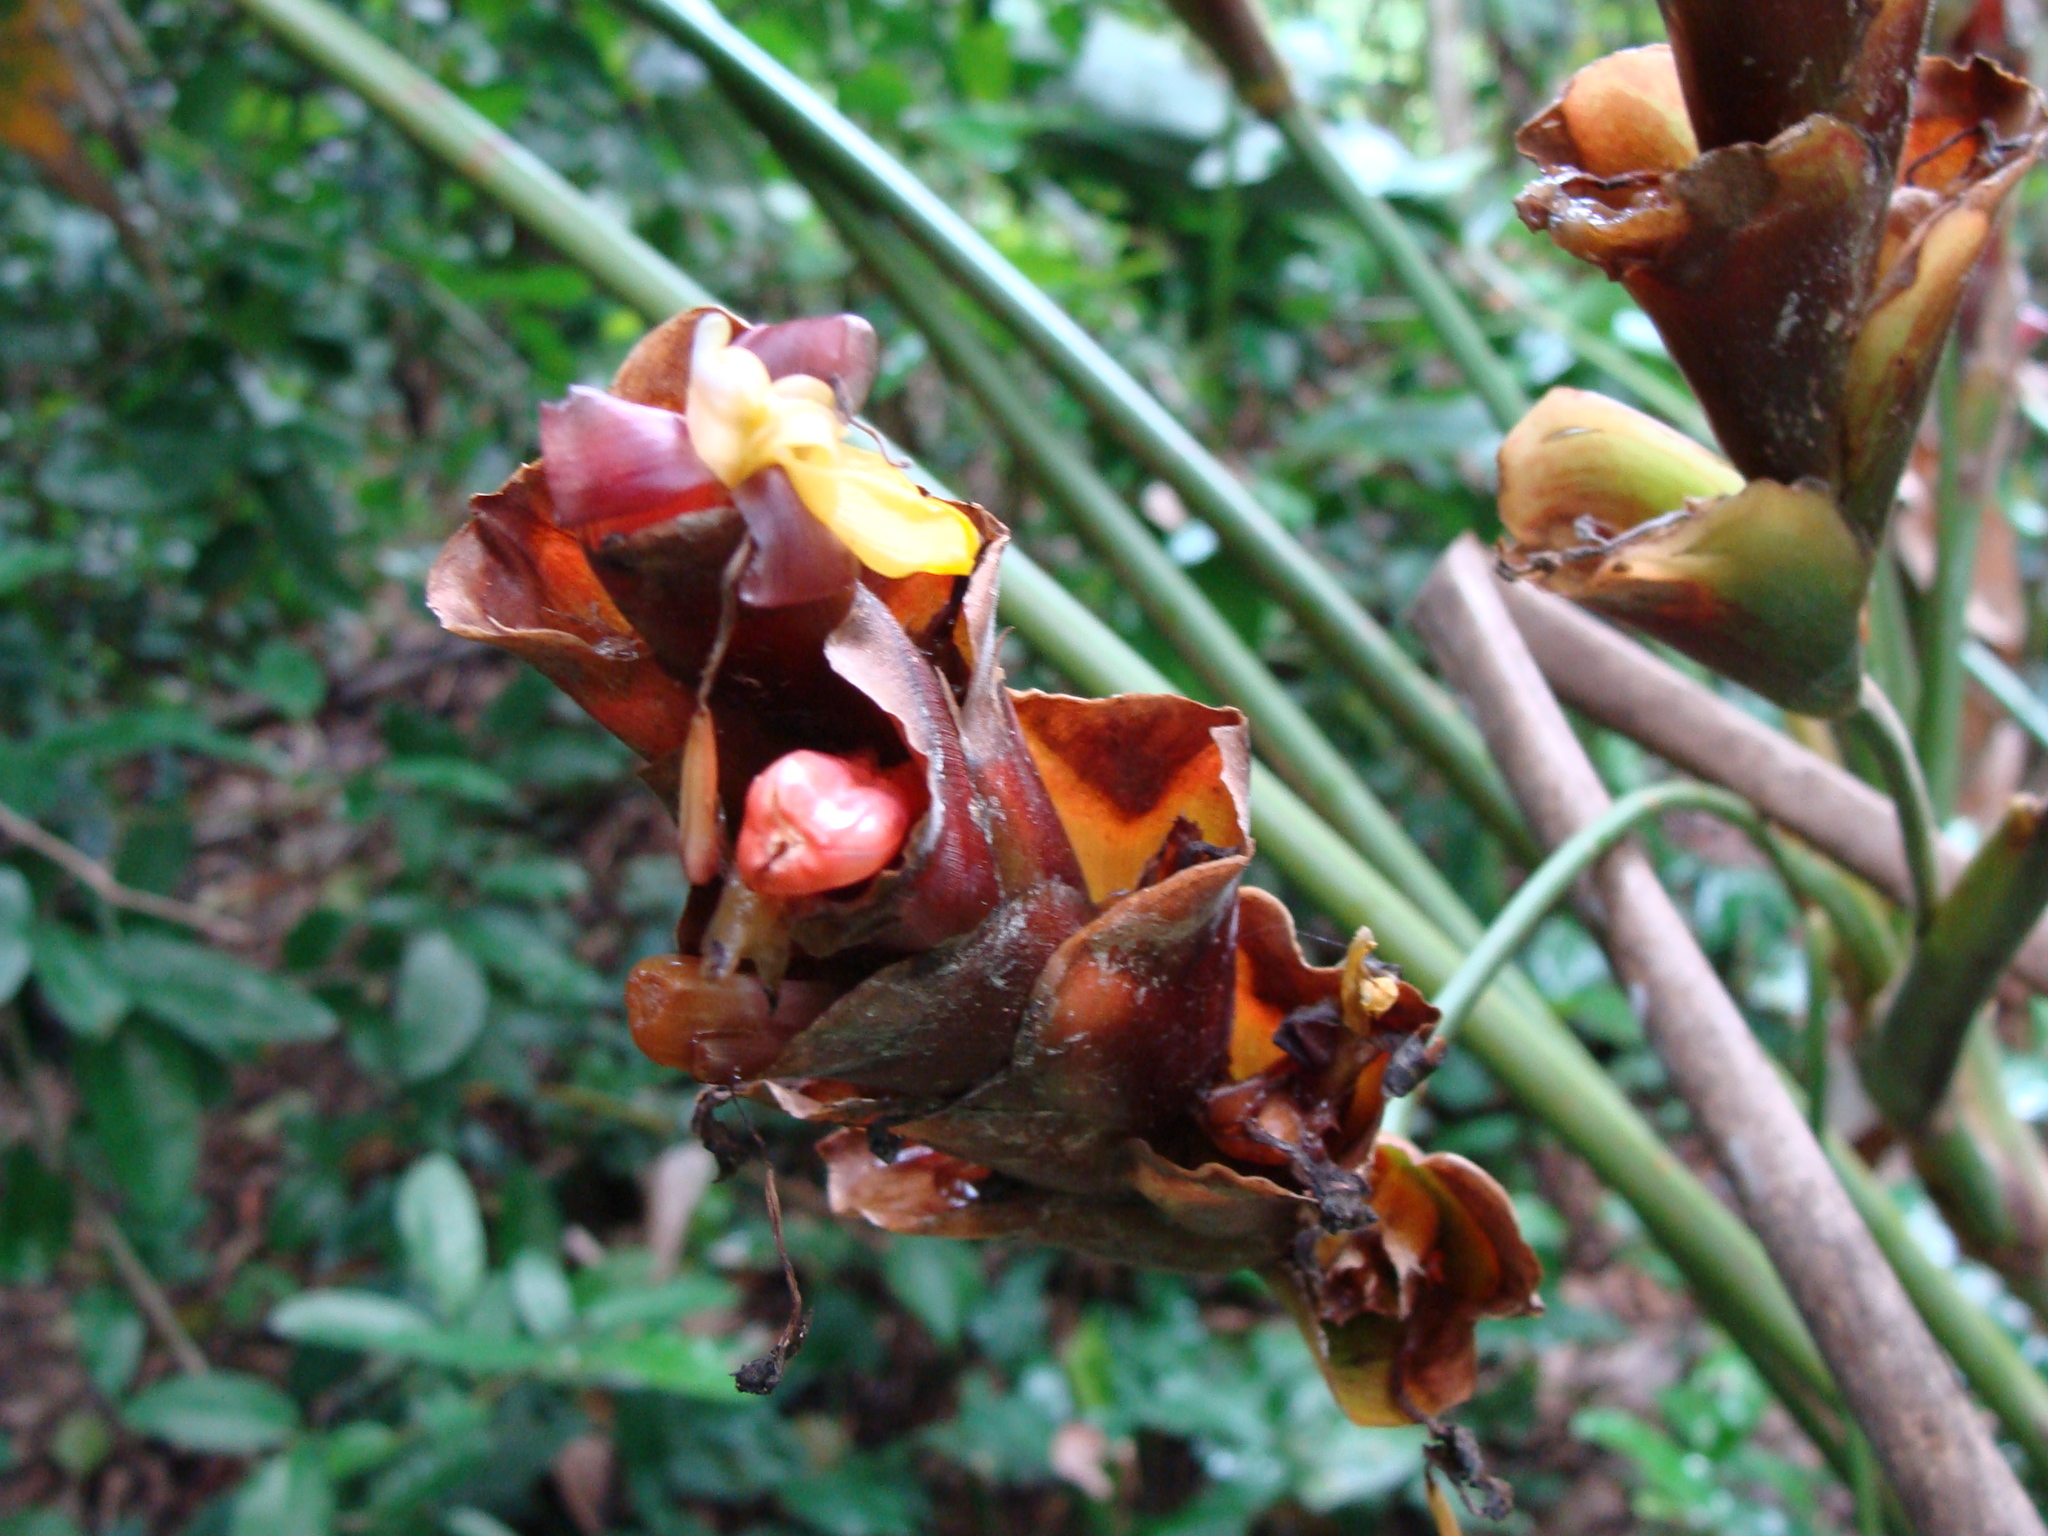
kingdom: Plantae
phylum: Tracheophyta
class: Liliopsida
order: Zingiberales
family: Marantaceae
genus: Calathea
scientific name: Calathea lutea
